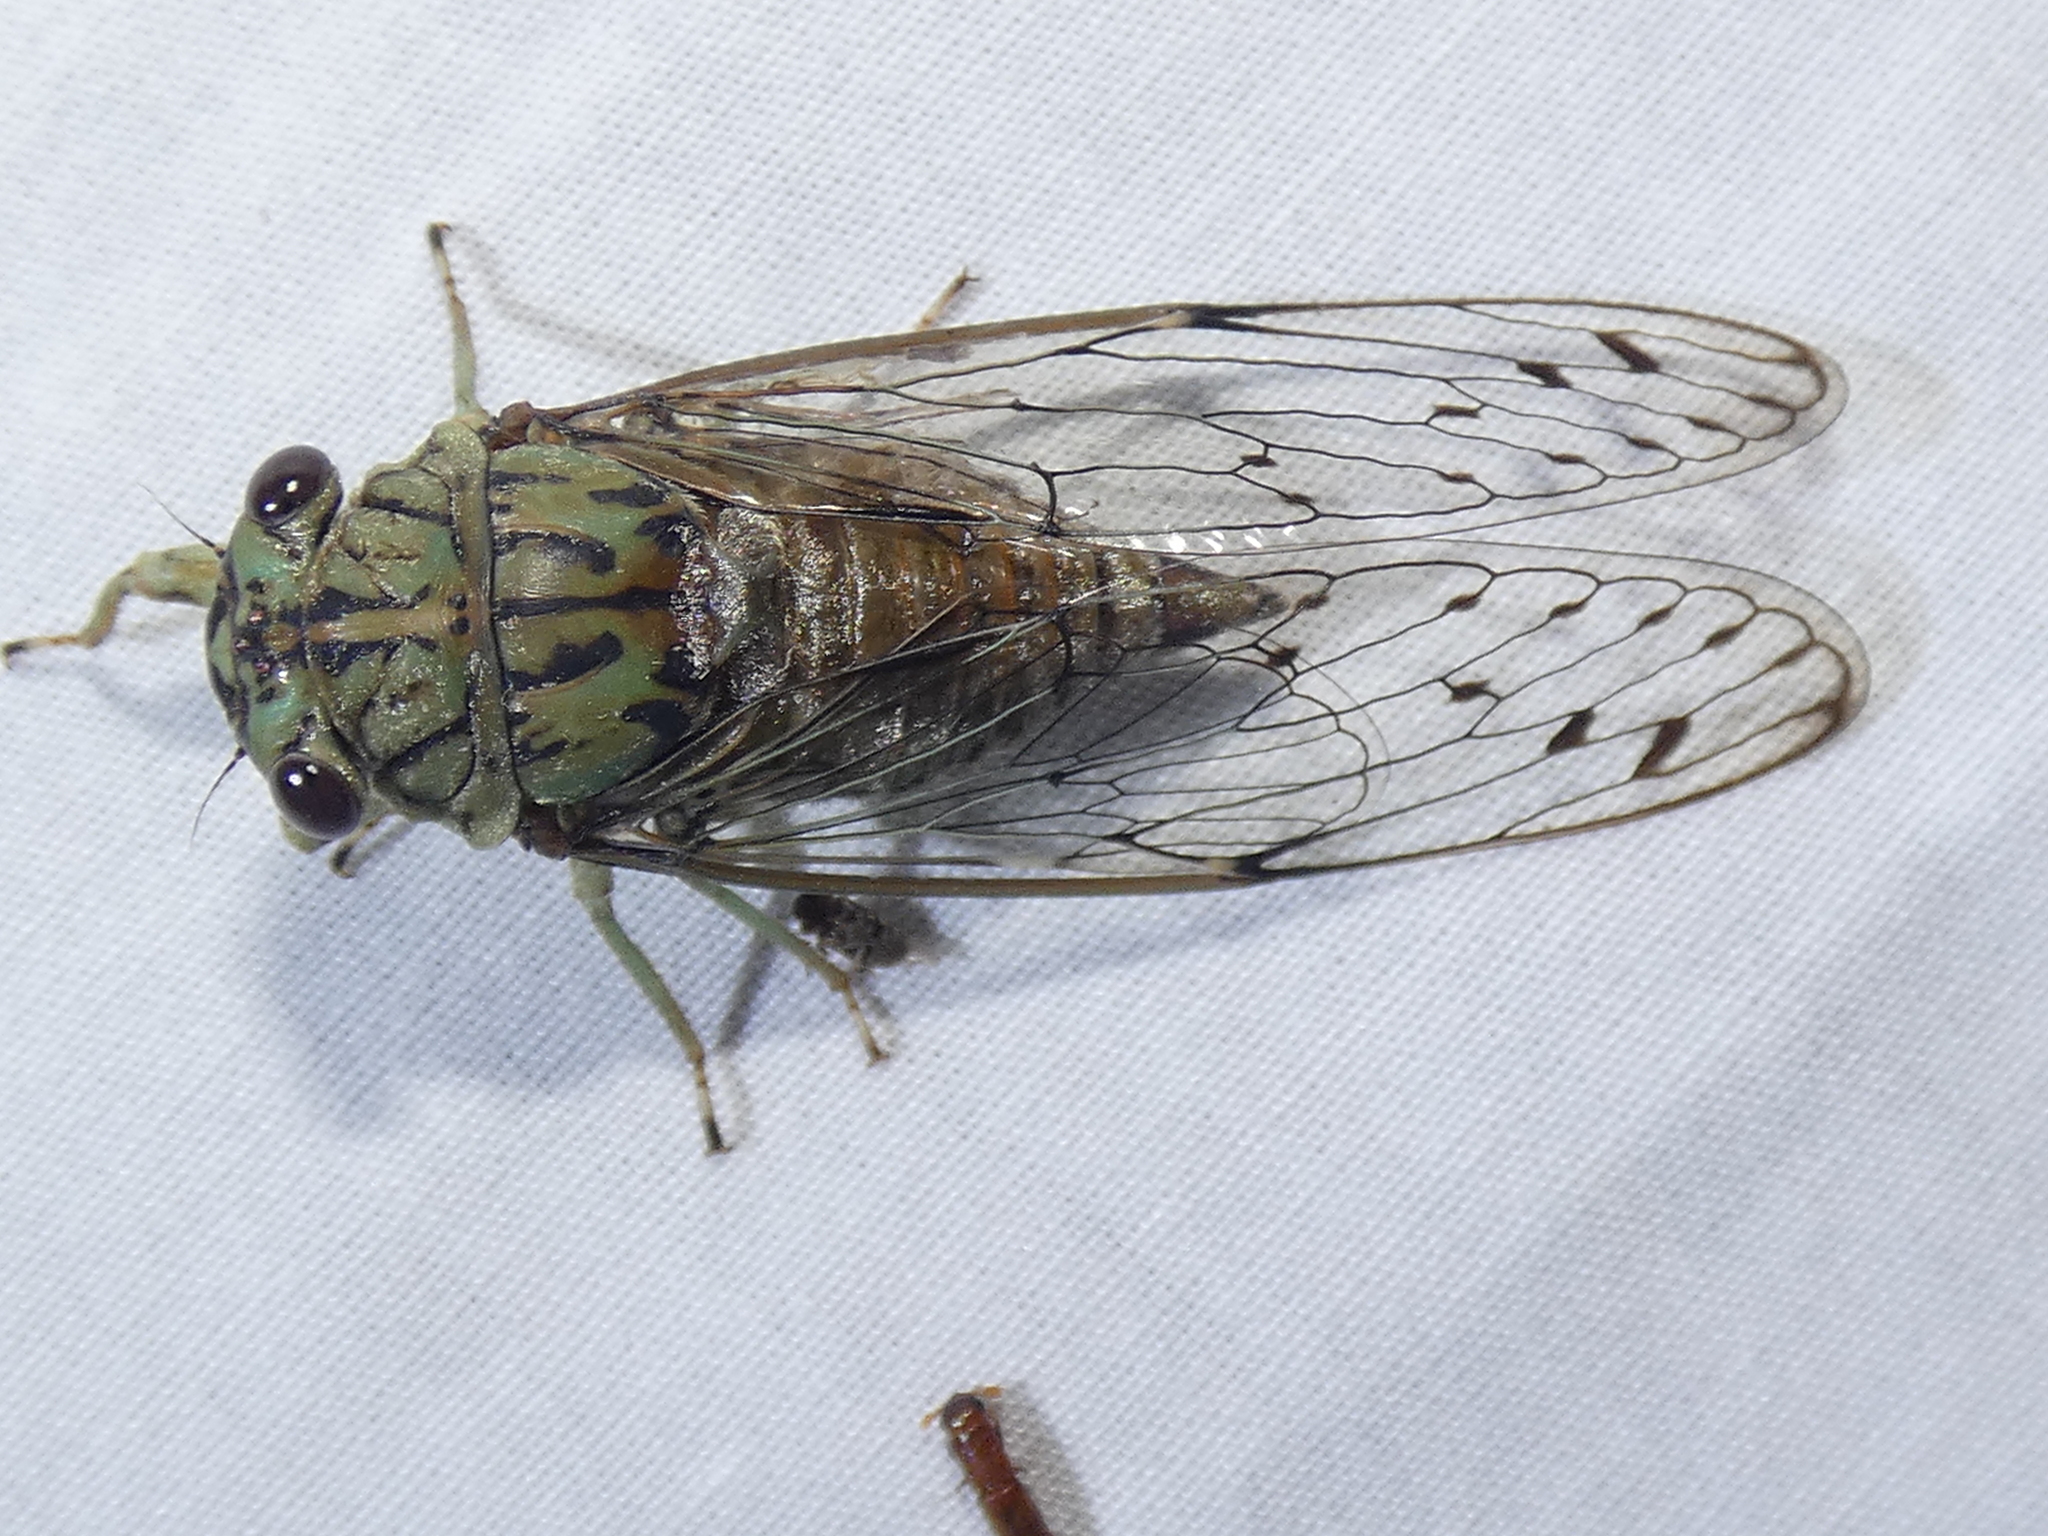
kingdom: Animalia
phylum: Arthropoda
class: Insecta
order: Hemiptera
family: Cicadidae
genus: Neocicada
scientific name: Neocicada hieroglyphica
